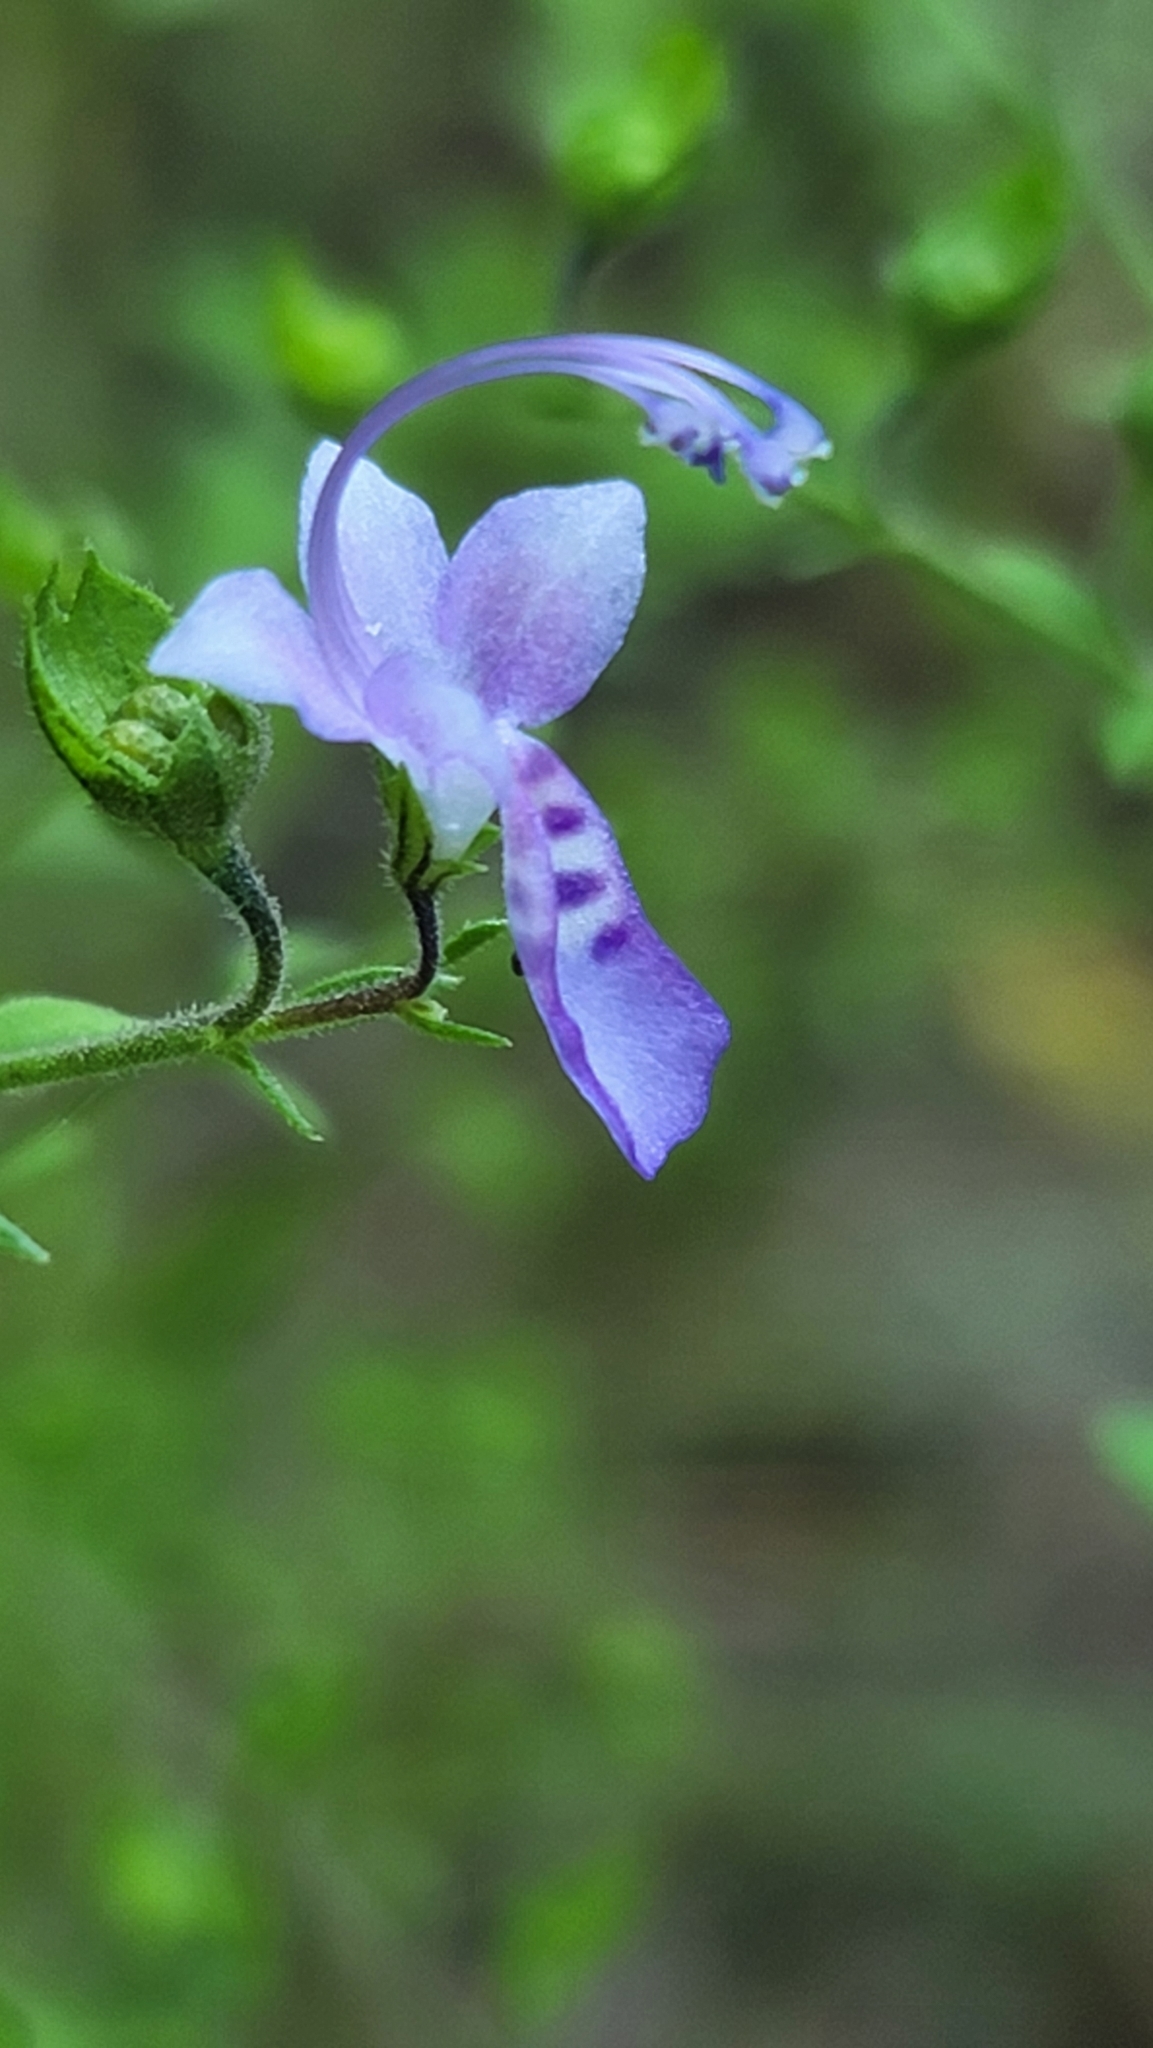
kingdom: Plantae
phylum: Tracheophyta
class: Magnoliopsida
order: Lamiales
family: Lamiaceae
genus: Trichostema
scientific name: Trichostema dichotomum
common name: Bastard pennyroyal
